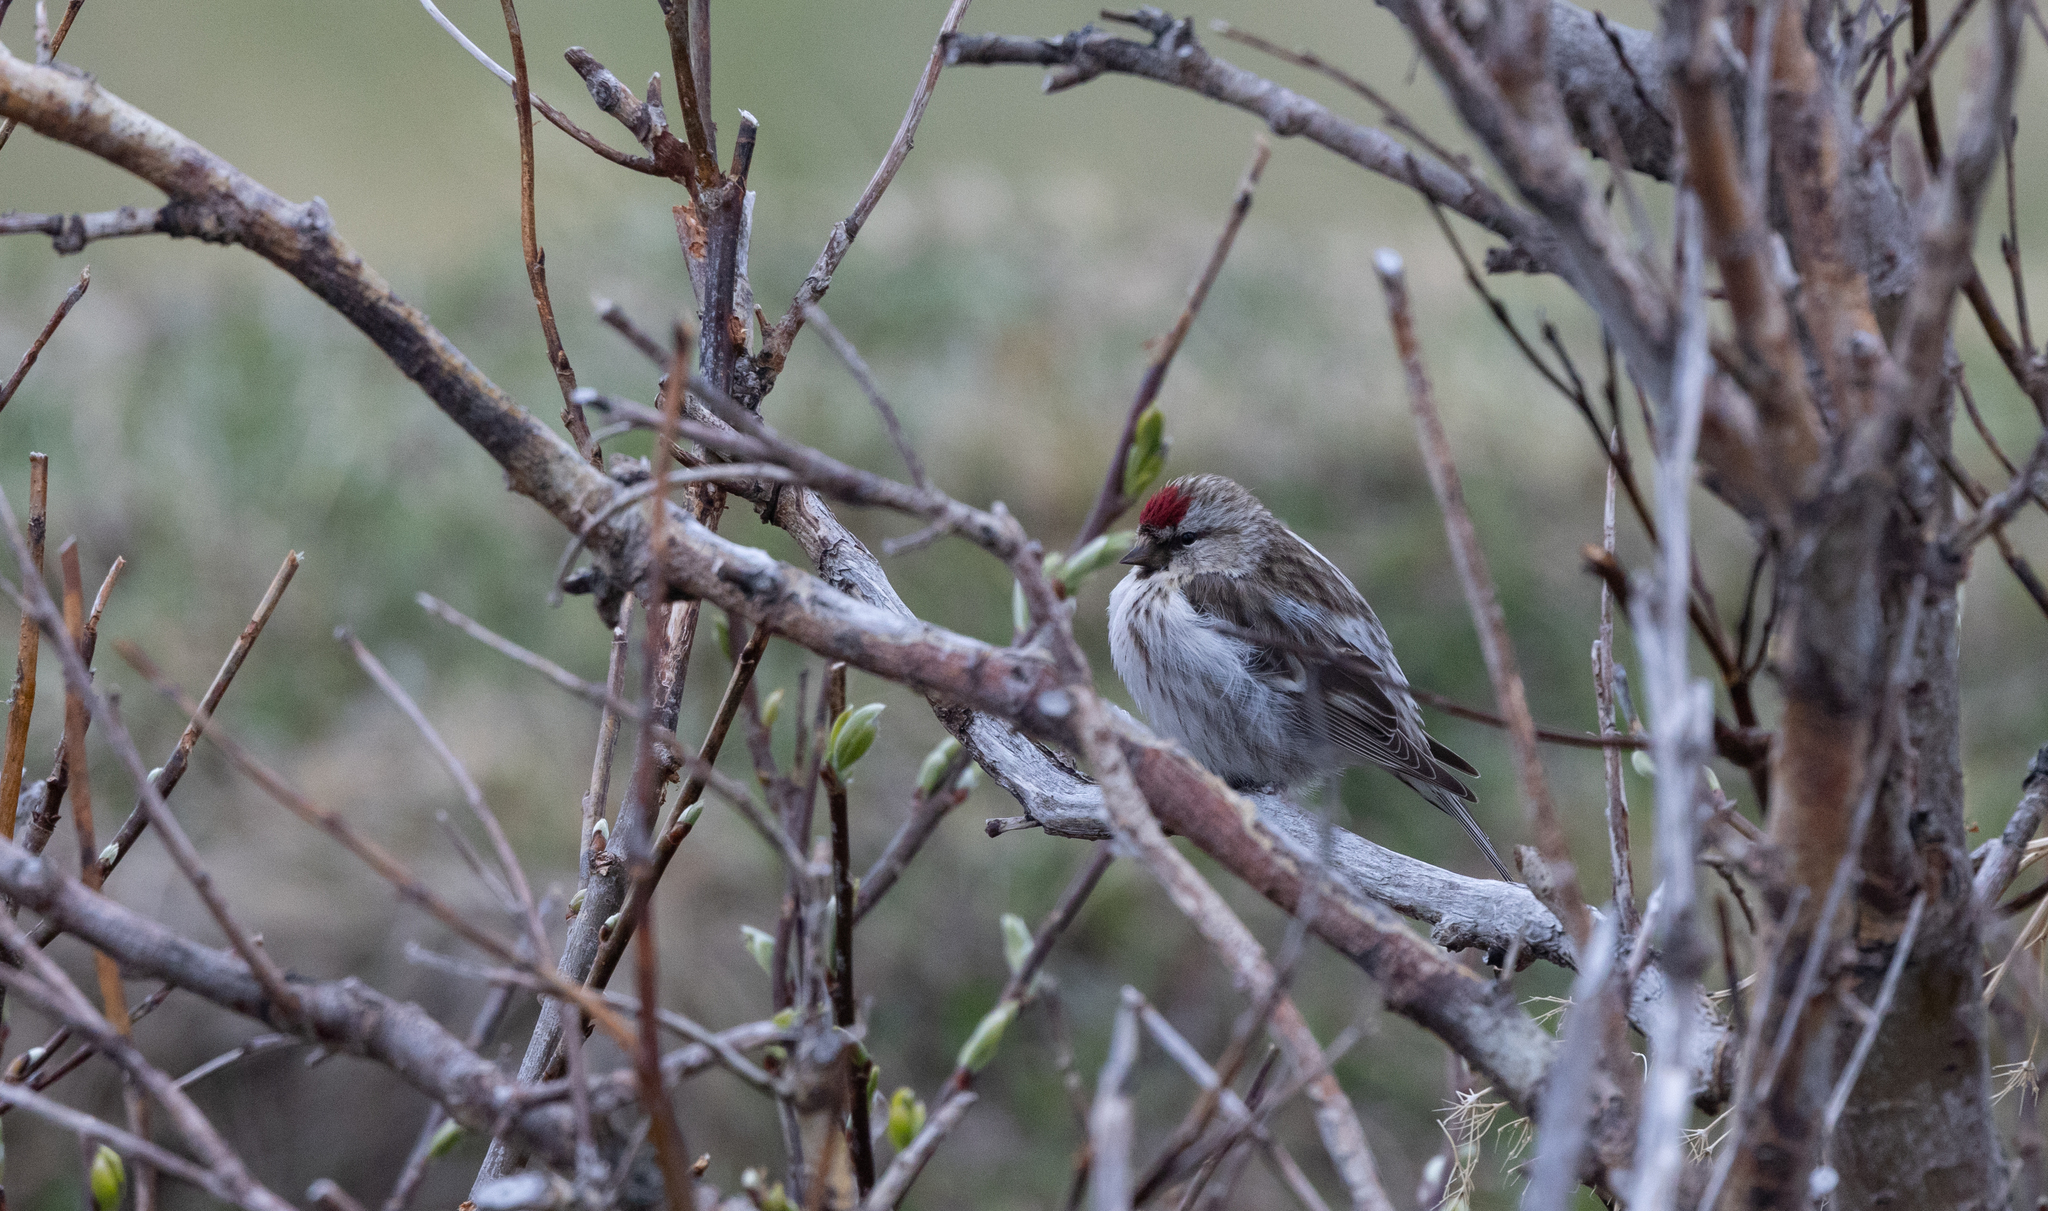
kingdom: Animalia
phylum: Chordata
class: Aves
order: Passeriformes
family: Fringillidae
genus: Acanthis
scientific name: Acanthis flammea
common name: Common redpoll
